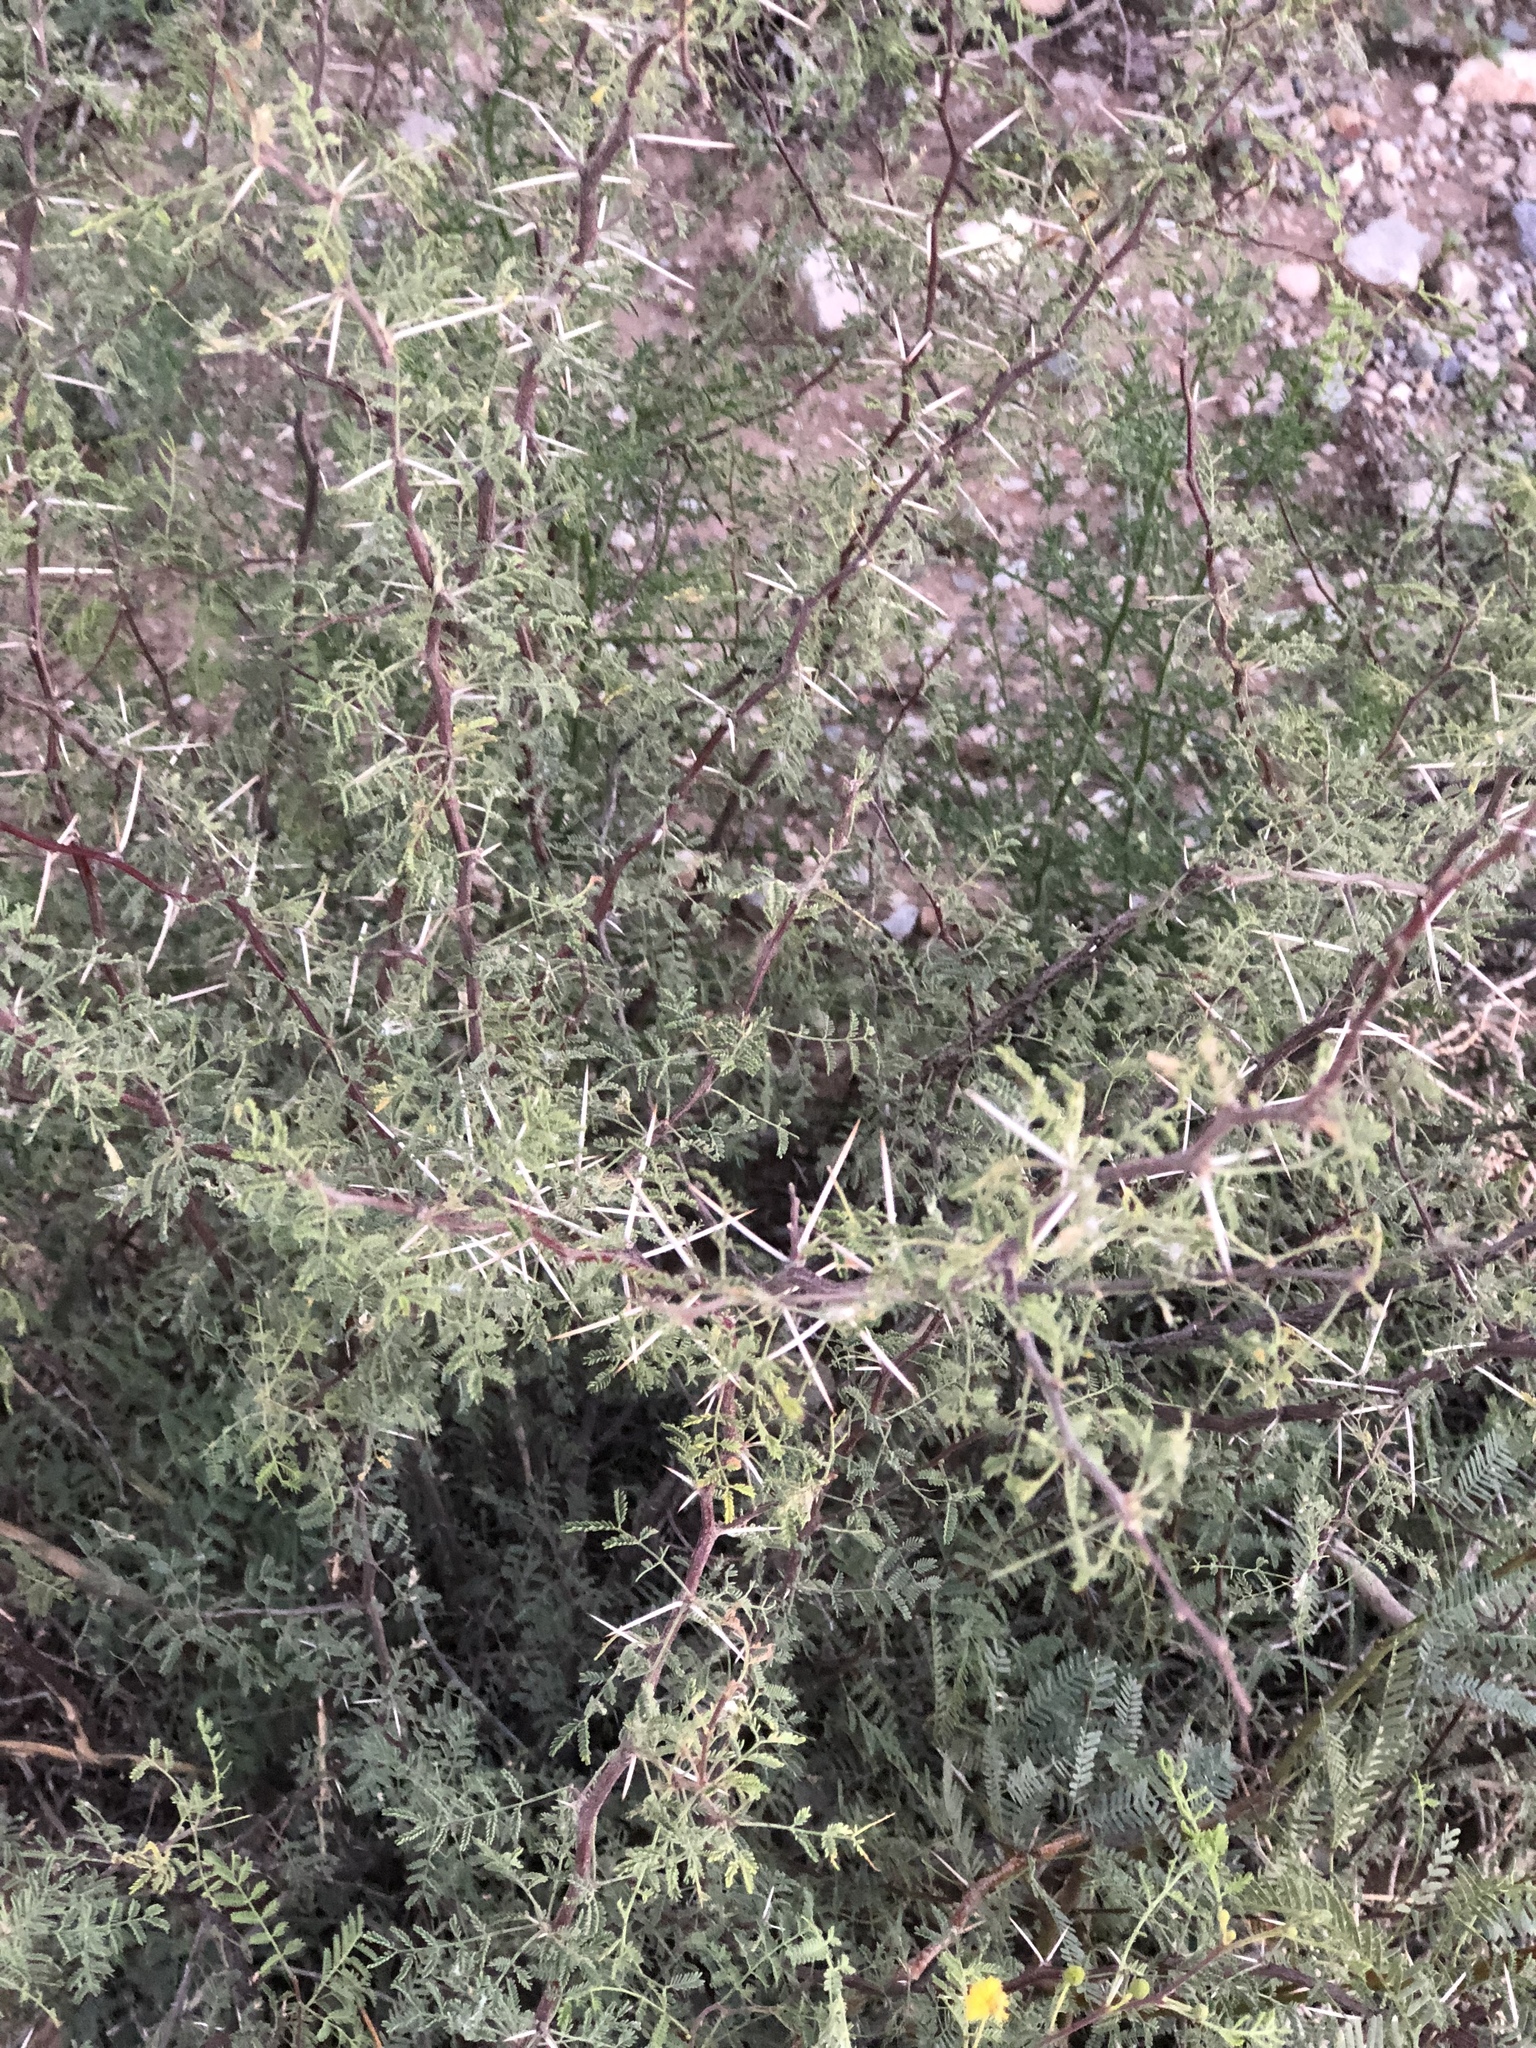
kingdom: Plantae
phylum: Tracheophyta
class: Magnoliopsida
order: Fabales
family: Fabaceae
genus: Vachellia
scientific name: Vachellia constricta
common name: Mescat acacia
